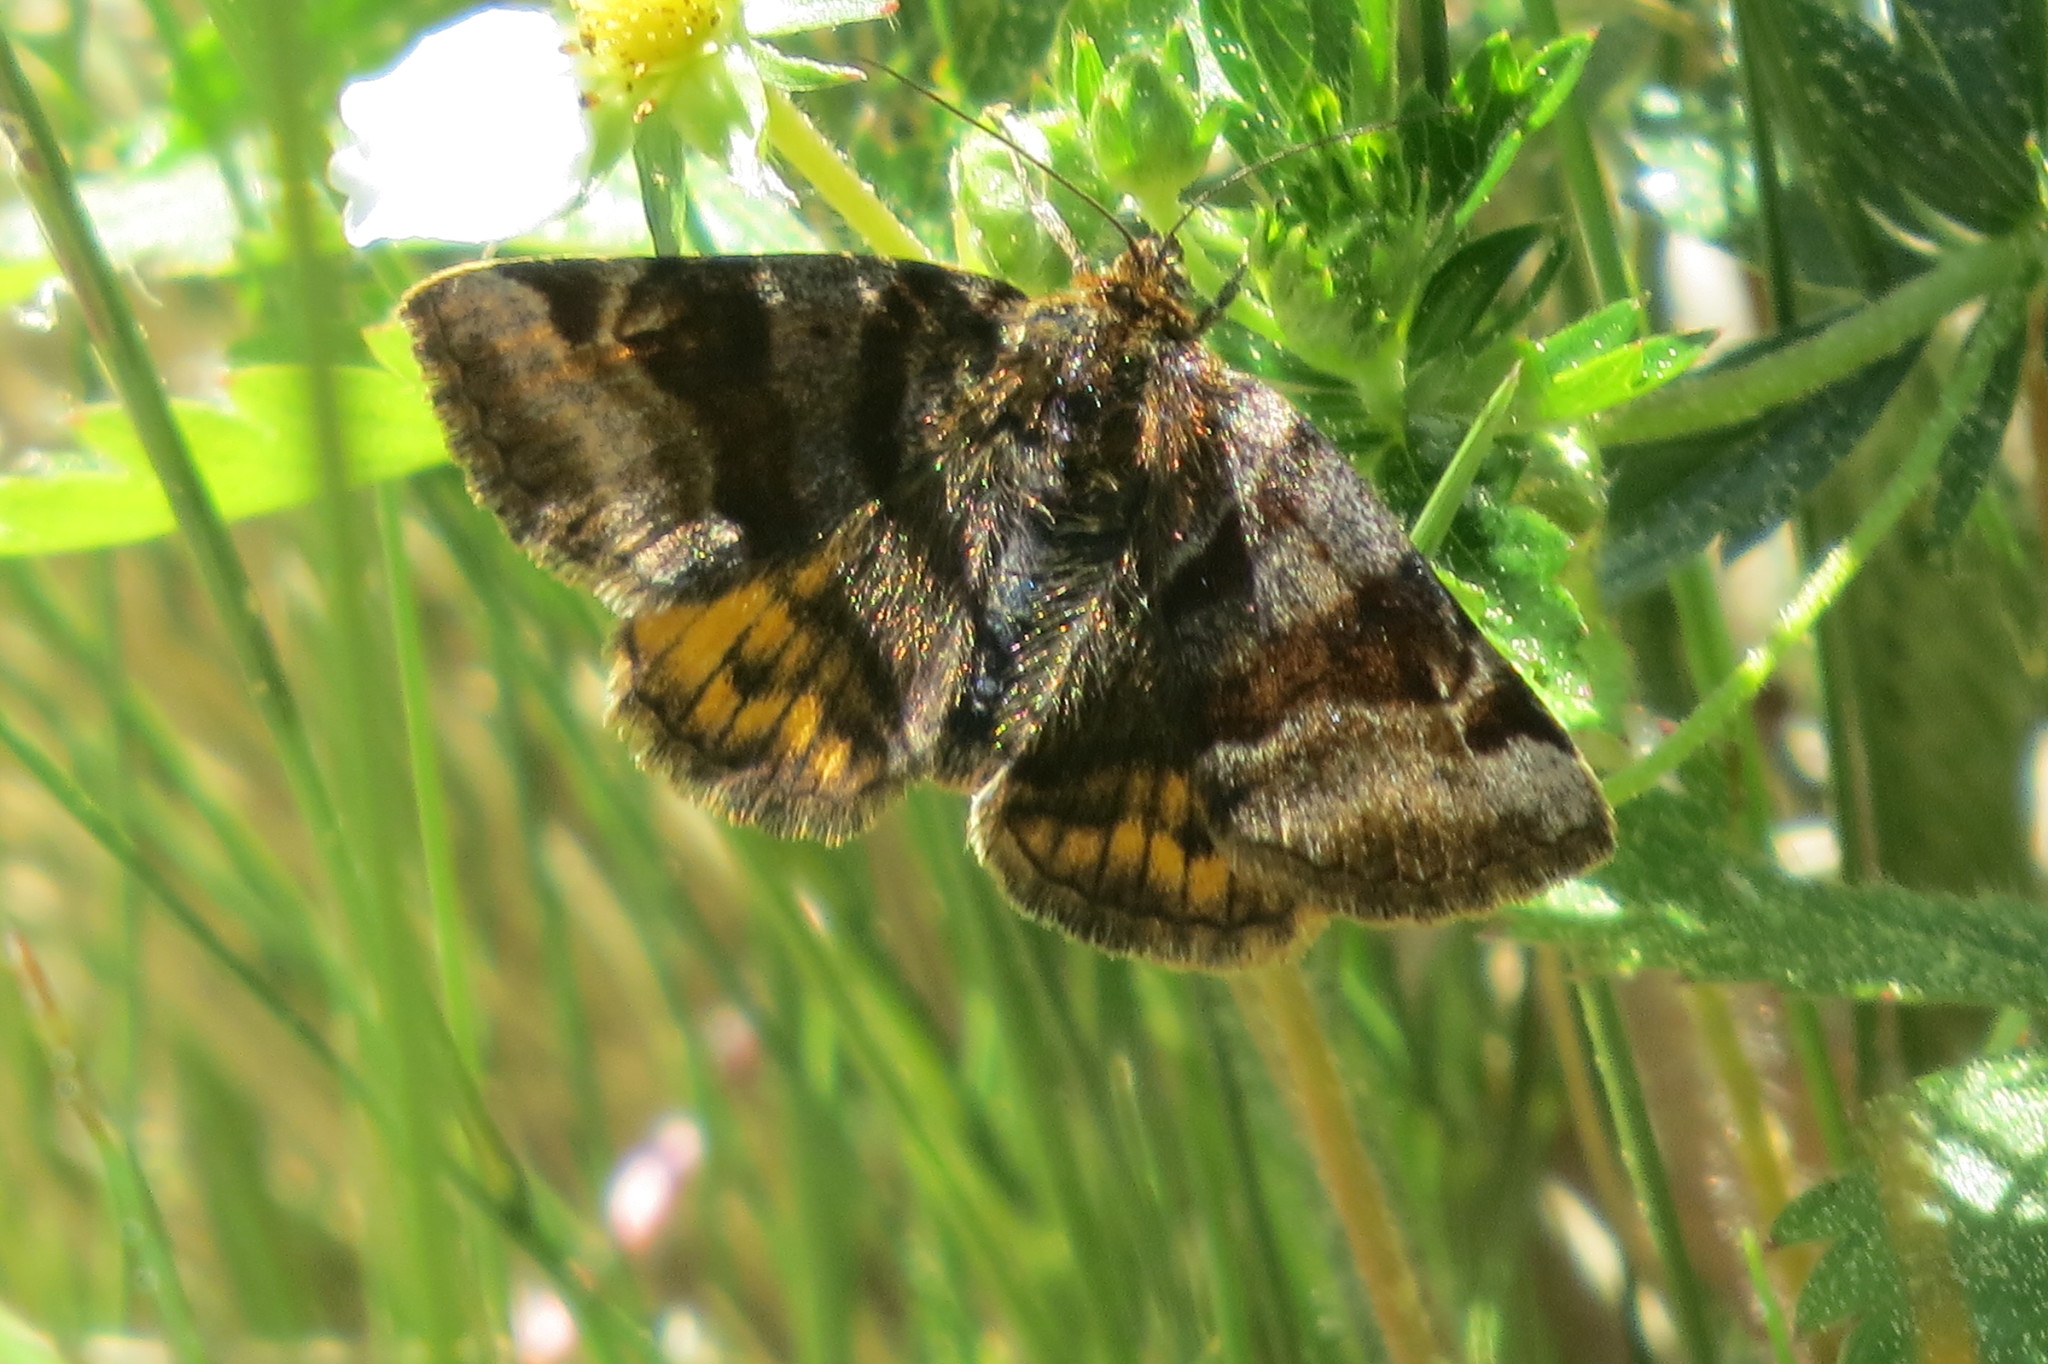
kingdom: Animalia
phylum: Arthropoda
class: Insecta
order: Lepidoptera
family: Erebidae
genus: Euclidia
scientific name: Euclidia glyphica
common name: Burnet companion
